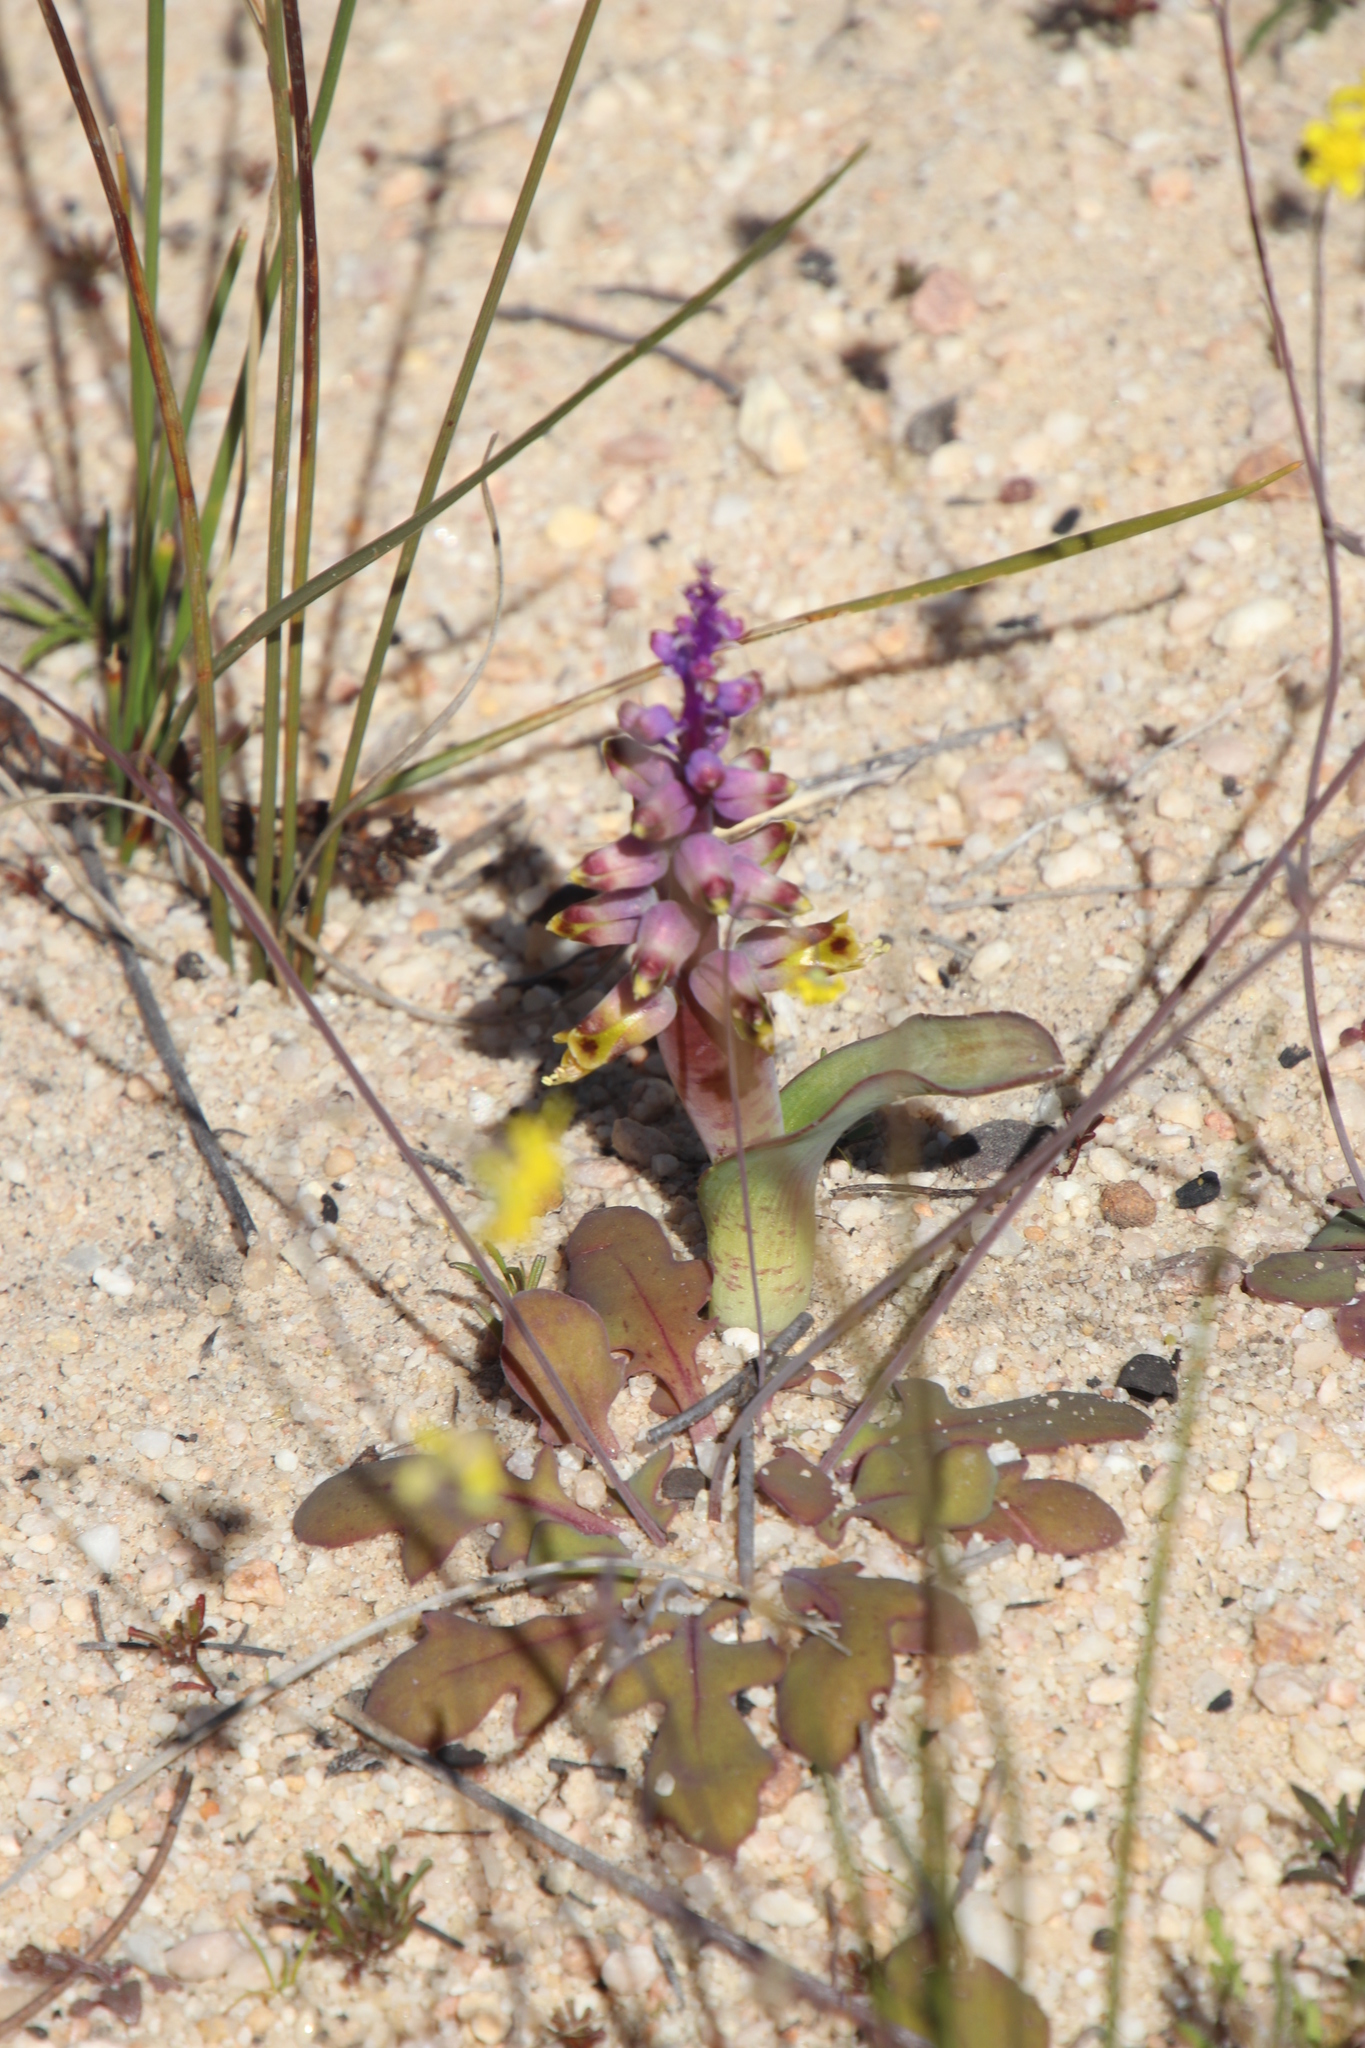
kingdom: Plantae
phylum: Tracheophyta
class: Liliopsida
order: Asparagales
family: Asparagaceae
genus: Lachenalia
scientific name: Lachenalia mutabilis
